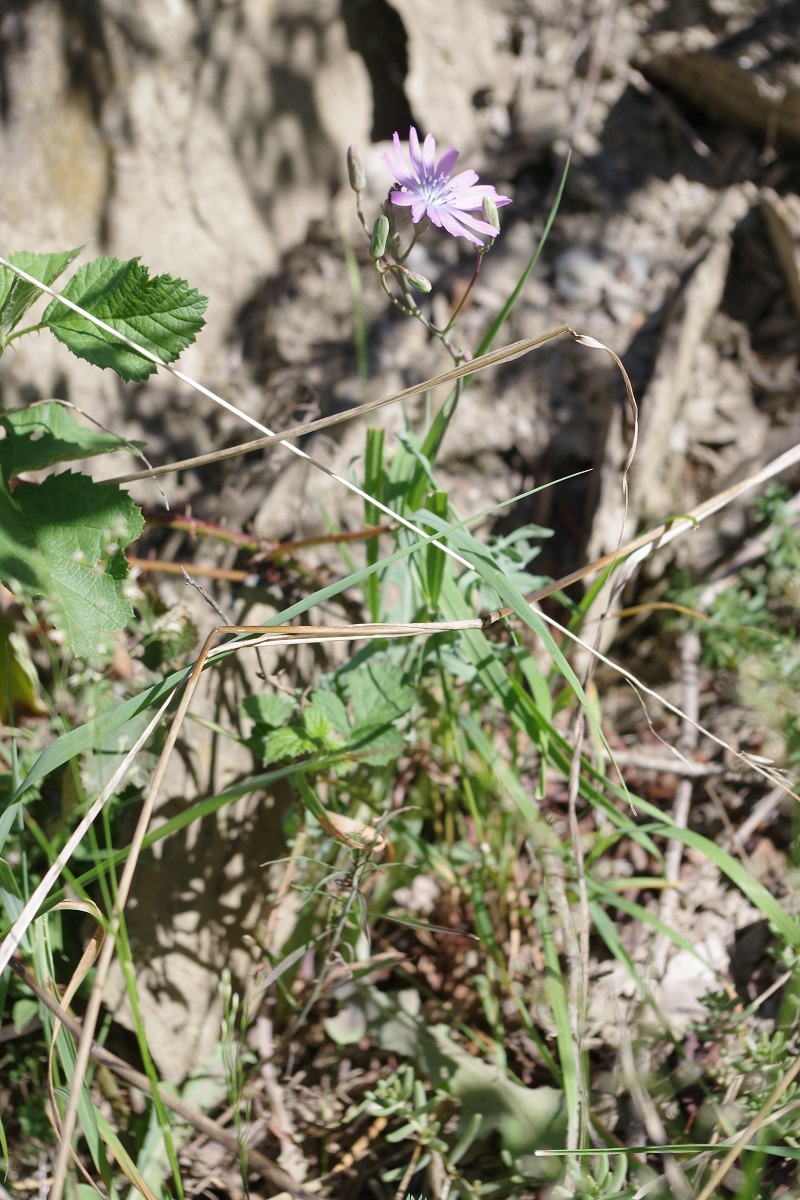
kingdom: Plantae
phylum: Tracheophyta
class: Magnoliopsida
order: Asterales
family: Asteraceae
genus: Lactuca
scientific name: Lactuca perennis
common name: Mountain lettuce
